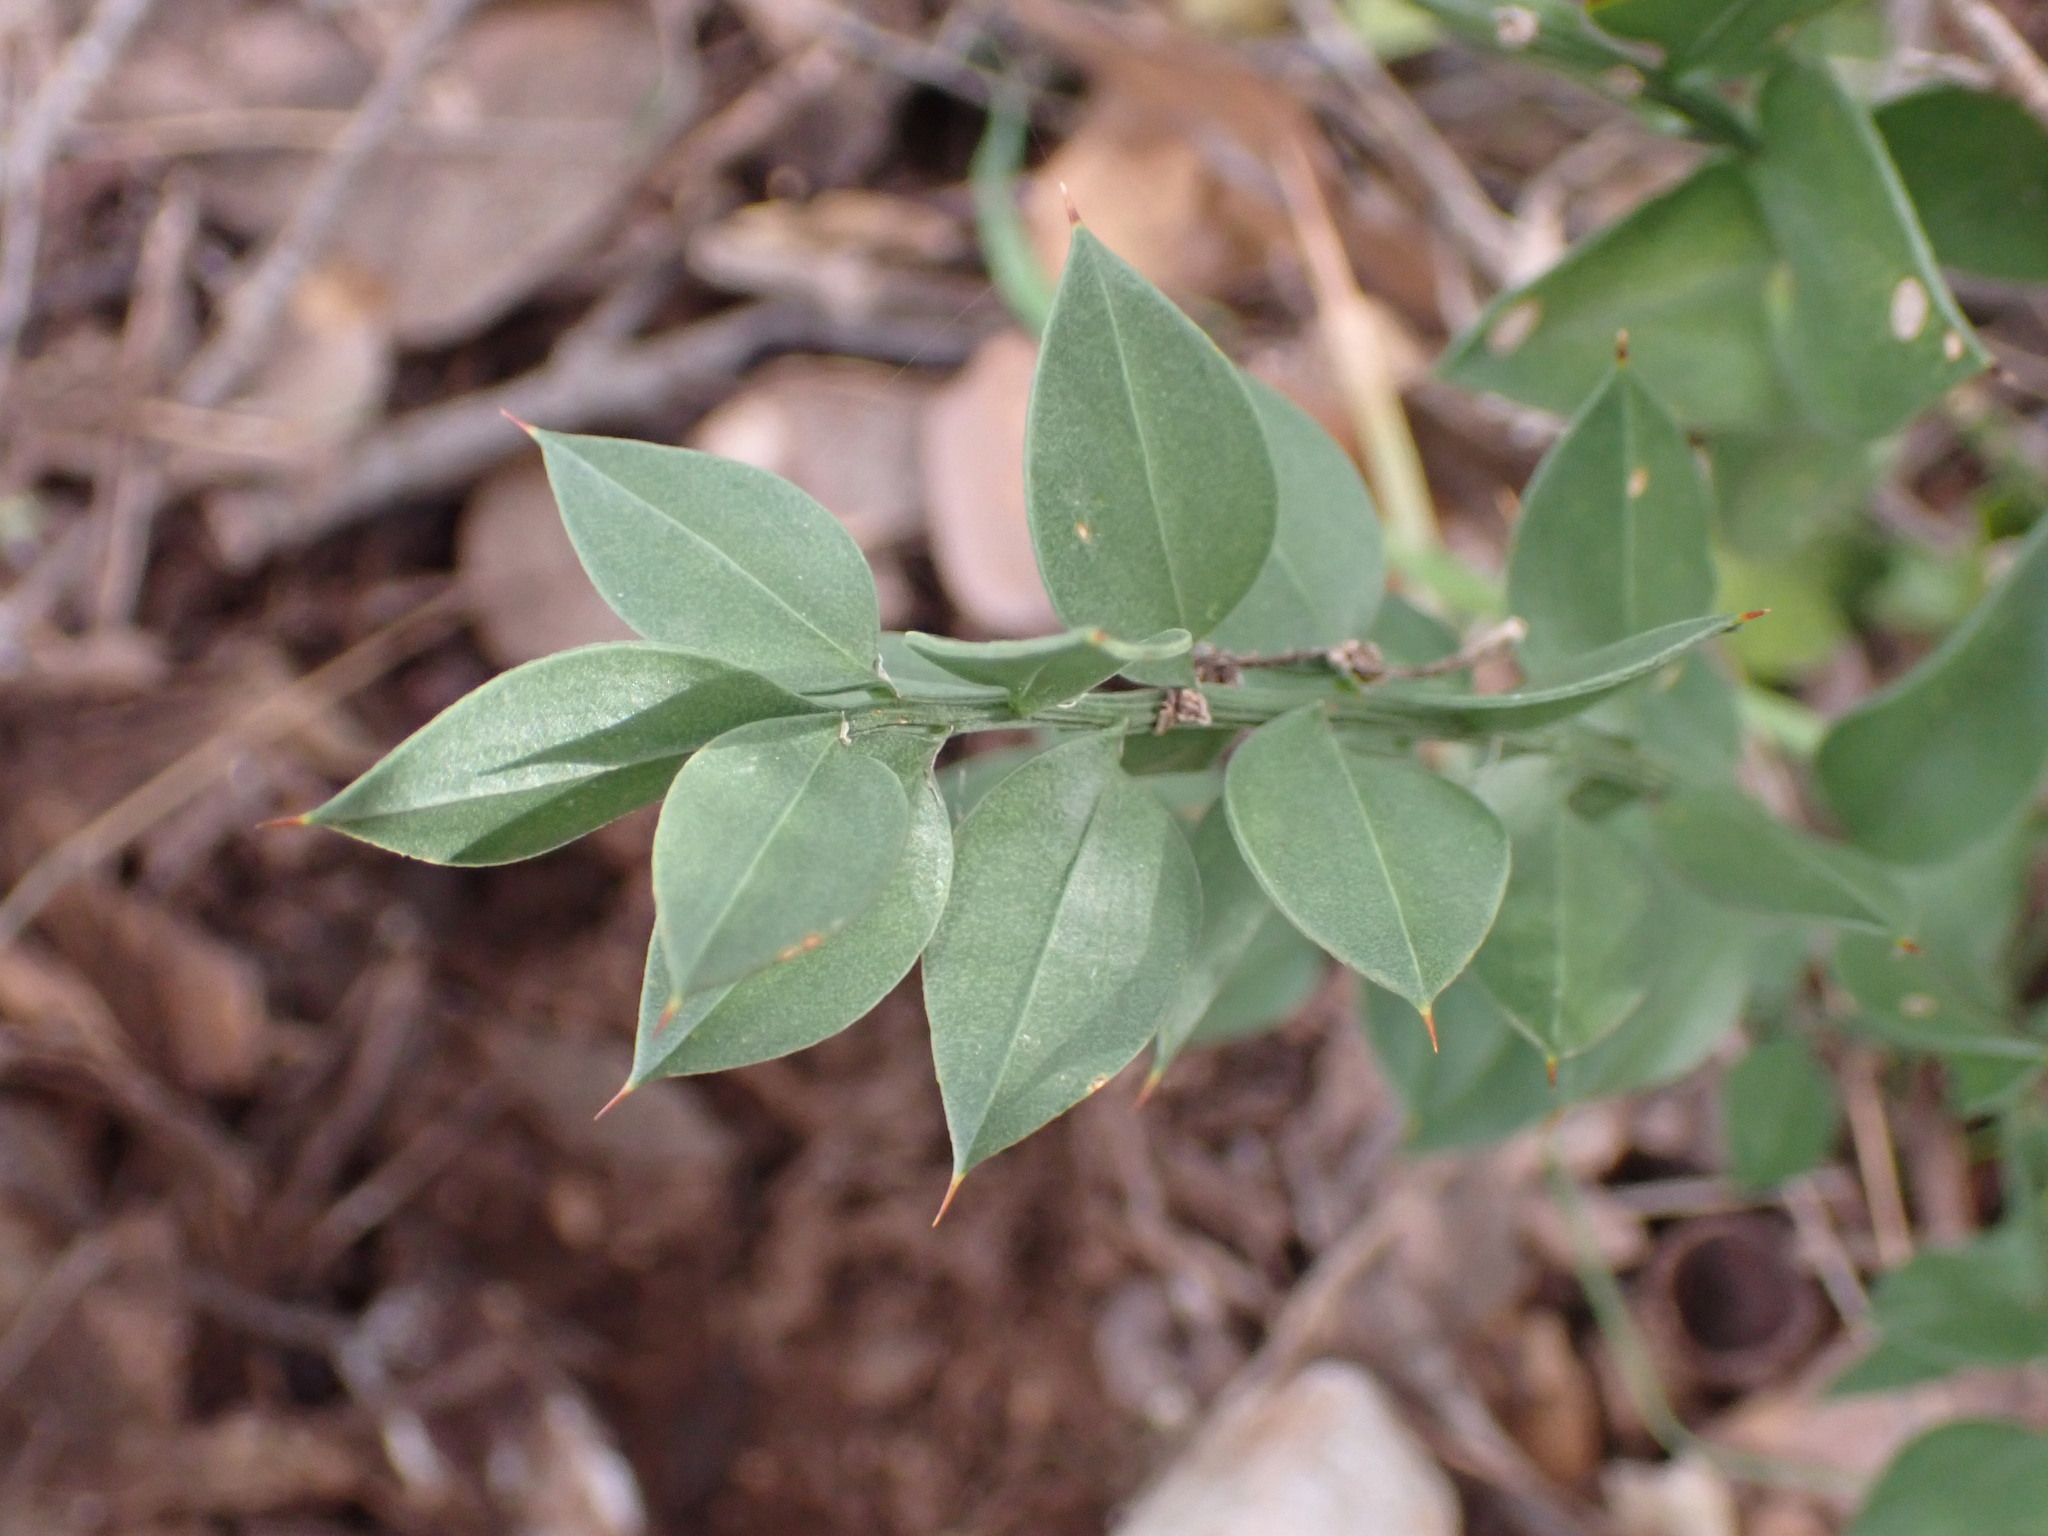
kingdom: Plantae
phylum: Tracheophyta
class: Liliopsida
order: Asparagales
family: Asparagaceae
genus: Ruscus
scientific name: Ruscus aculeatus
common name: Butcher's-broom
